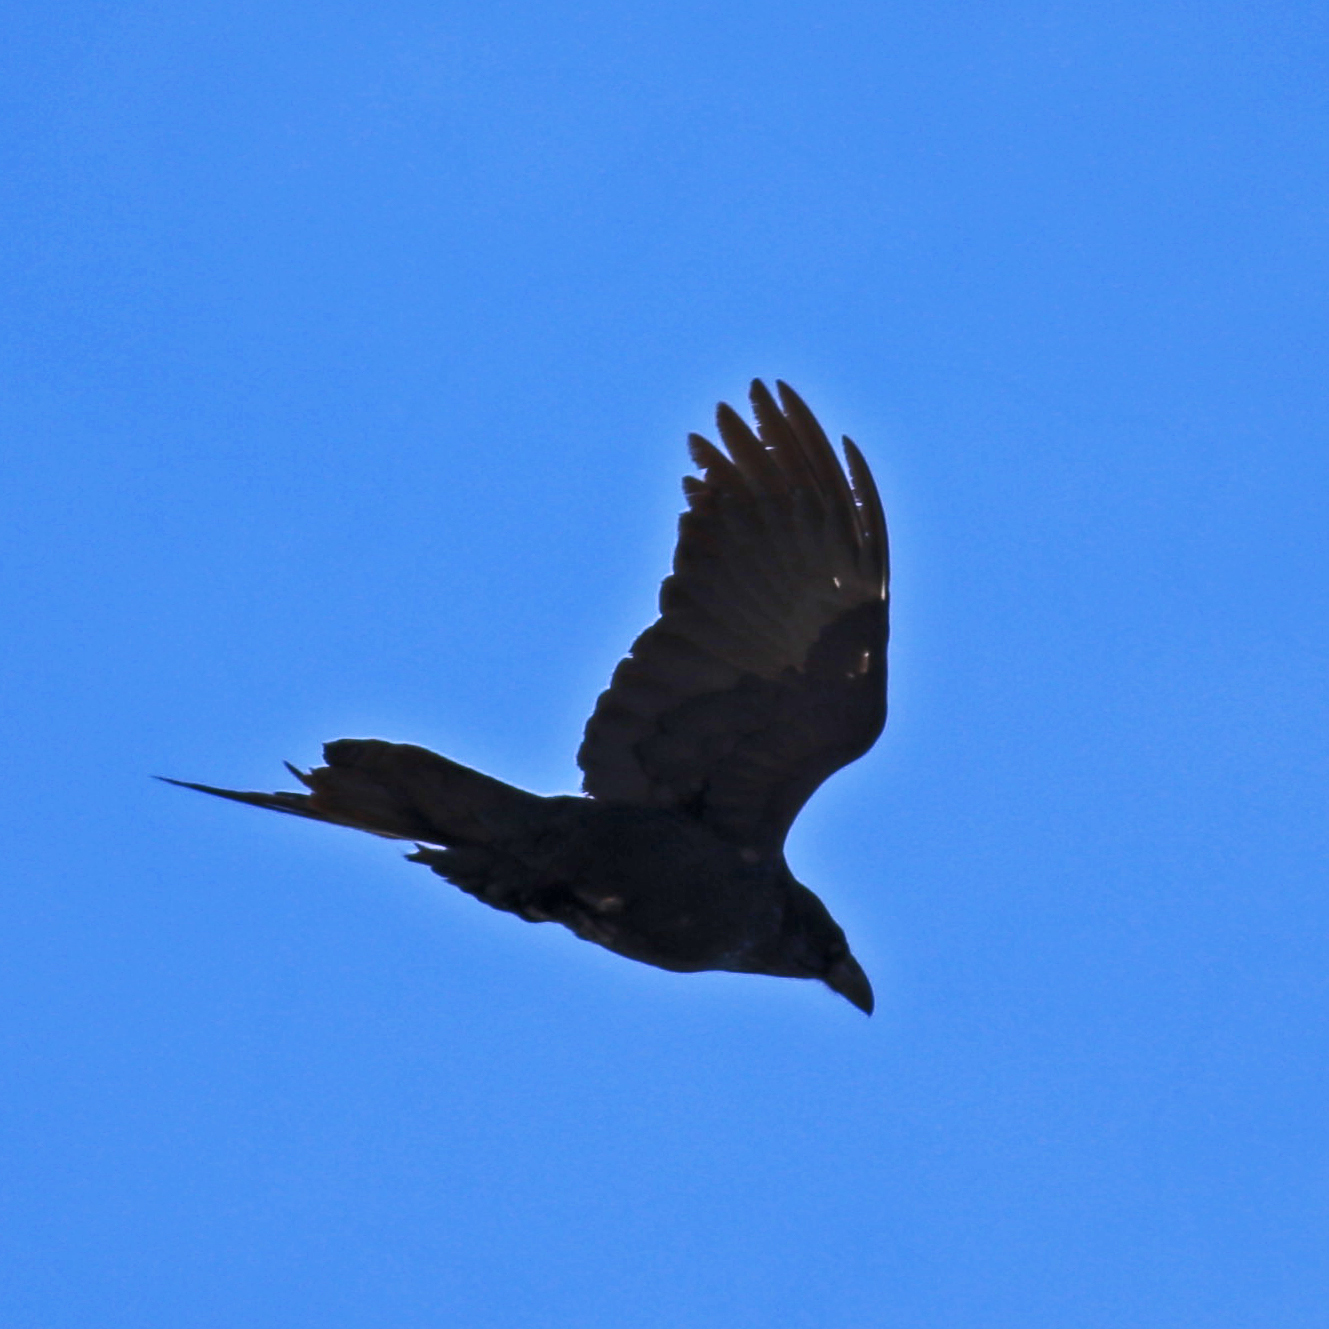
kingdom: Animalia
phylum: Chordata
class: Aves
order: Passeriformes
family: Corvidae
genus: Corvus
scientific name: Corvus brachyrhynchos
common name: American crow
